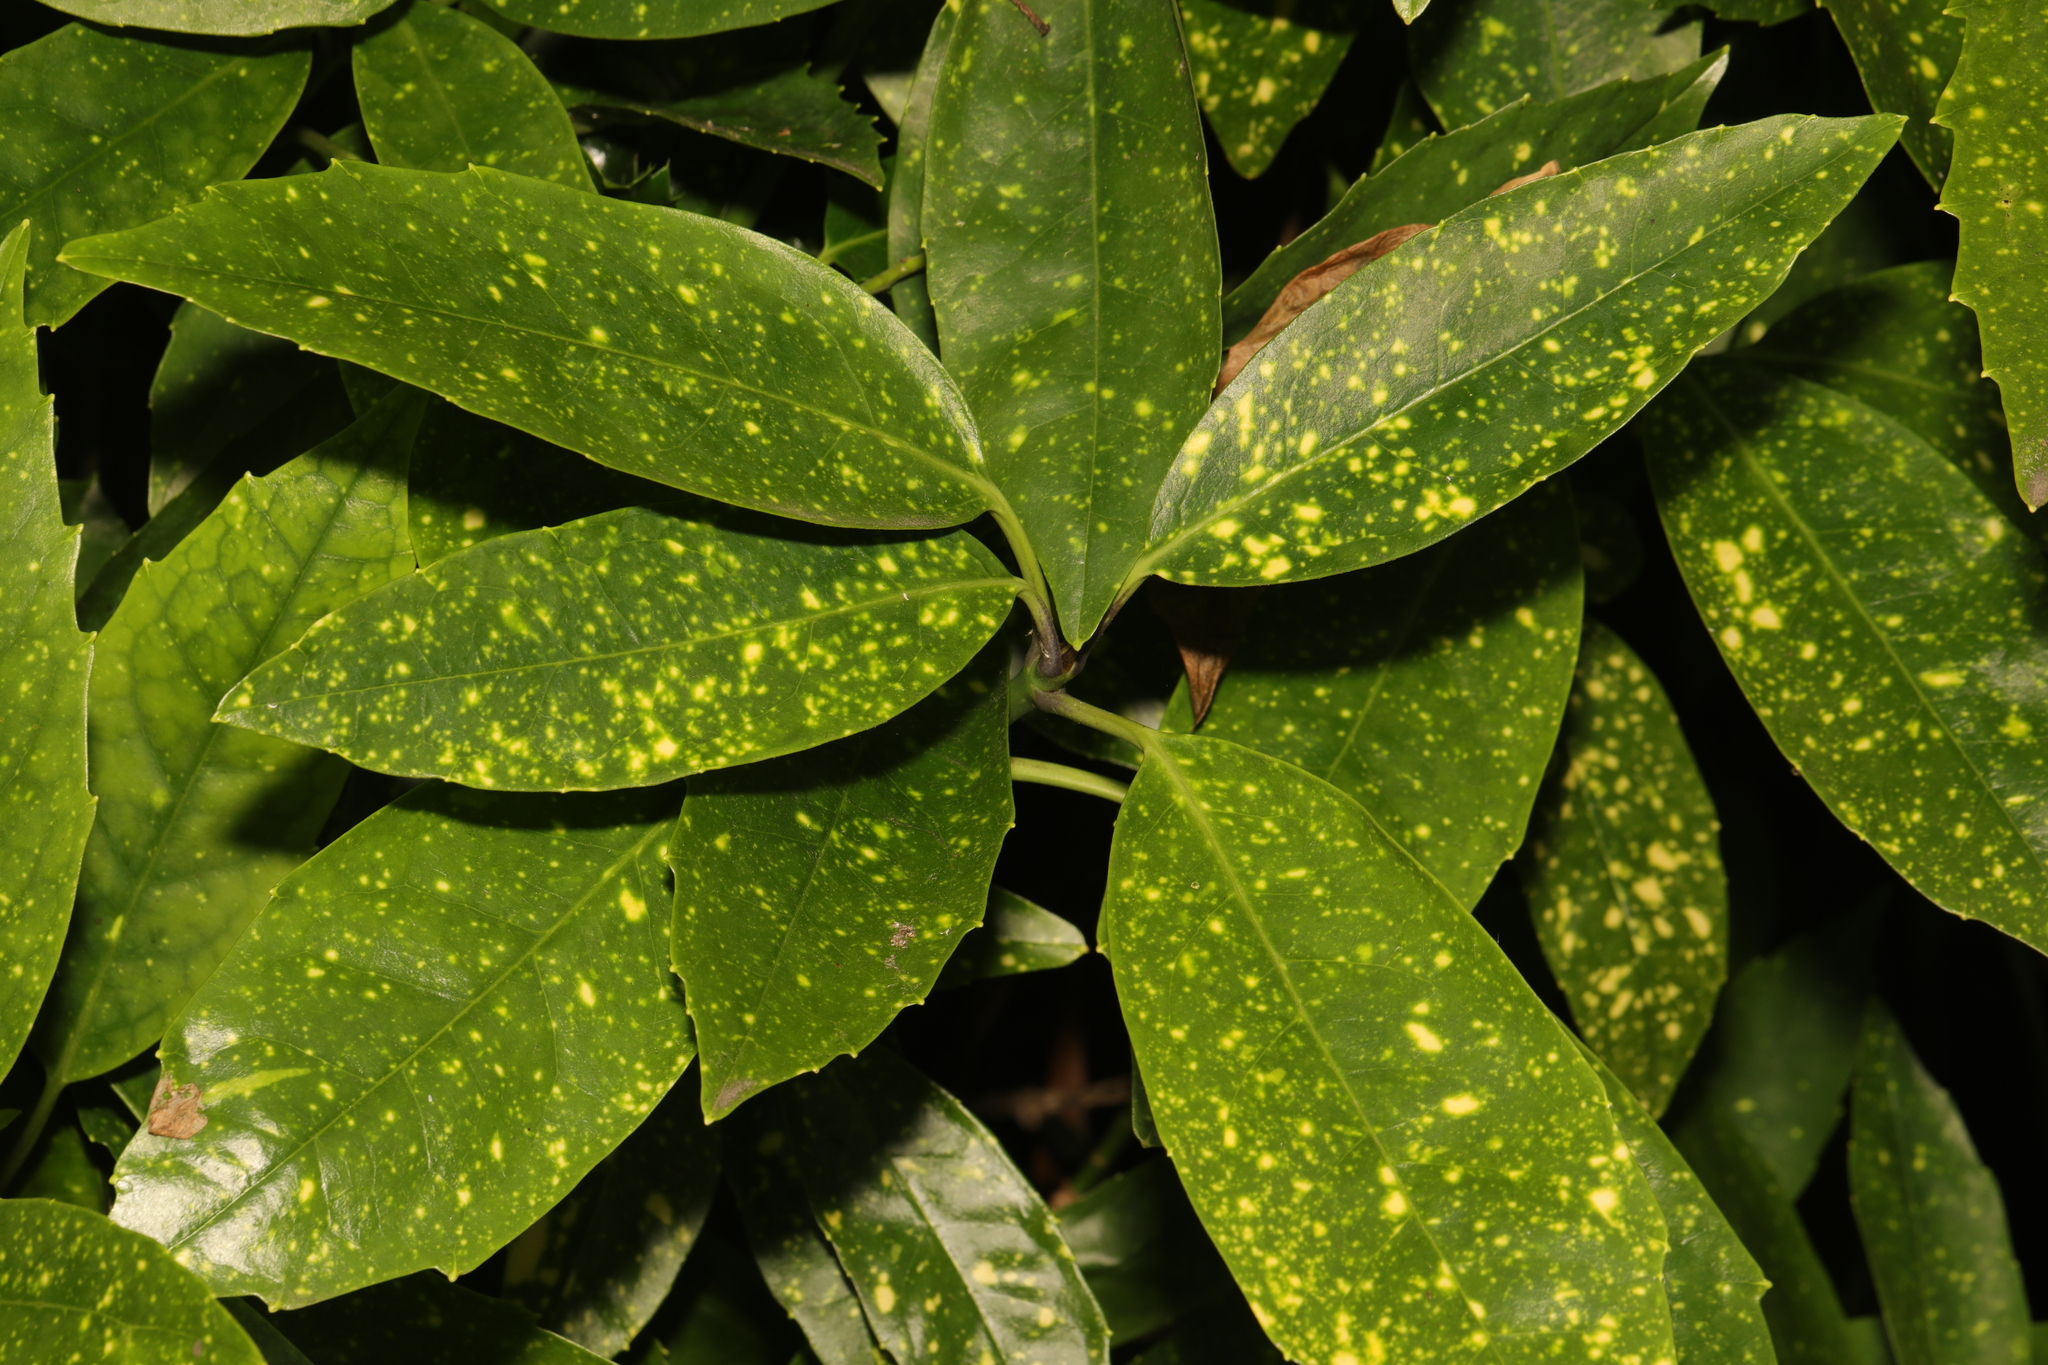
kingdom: Plantae
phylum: Tracheophyta
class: Magnoliopsida
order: Garryales
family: Garryaceae
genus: Aucuba
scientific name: Aucuba japonica
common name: Spotted-laurel
